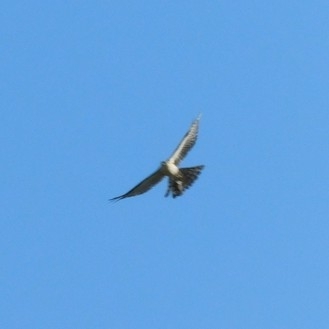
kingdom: Animalia
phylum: Chordata
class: Aves
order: Accipitriformes
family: Accipitridae
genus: Accipiter
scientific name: Accipiter nisus
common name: Eurasian sparrowhawk
